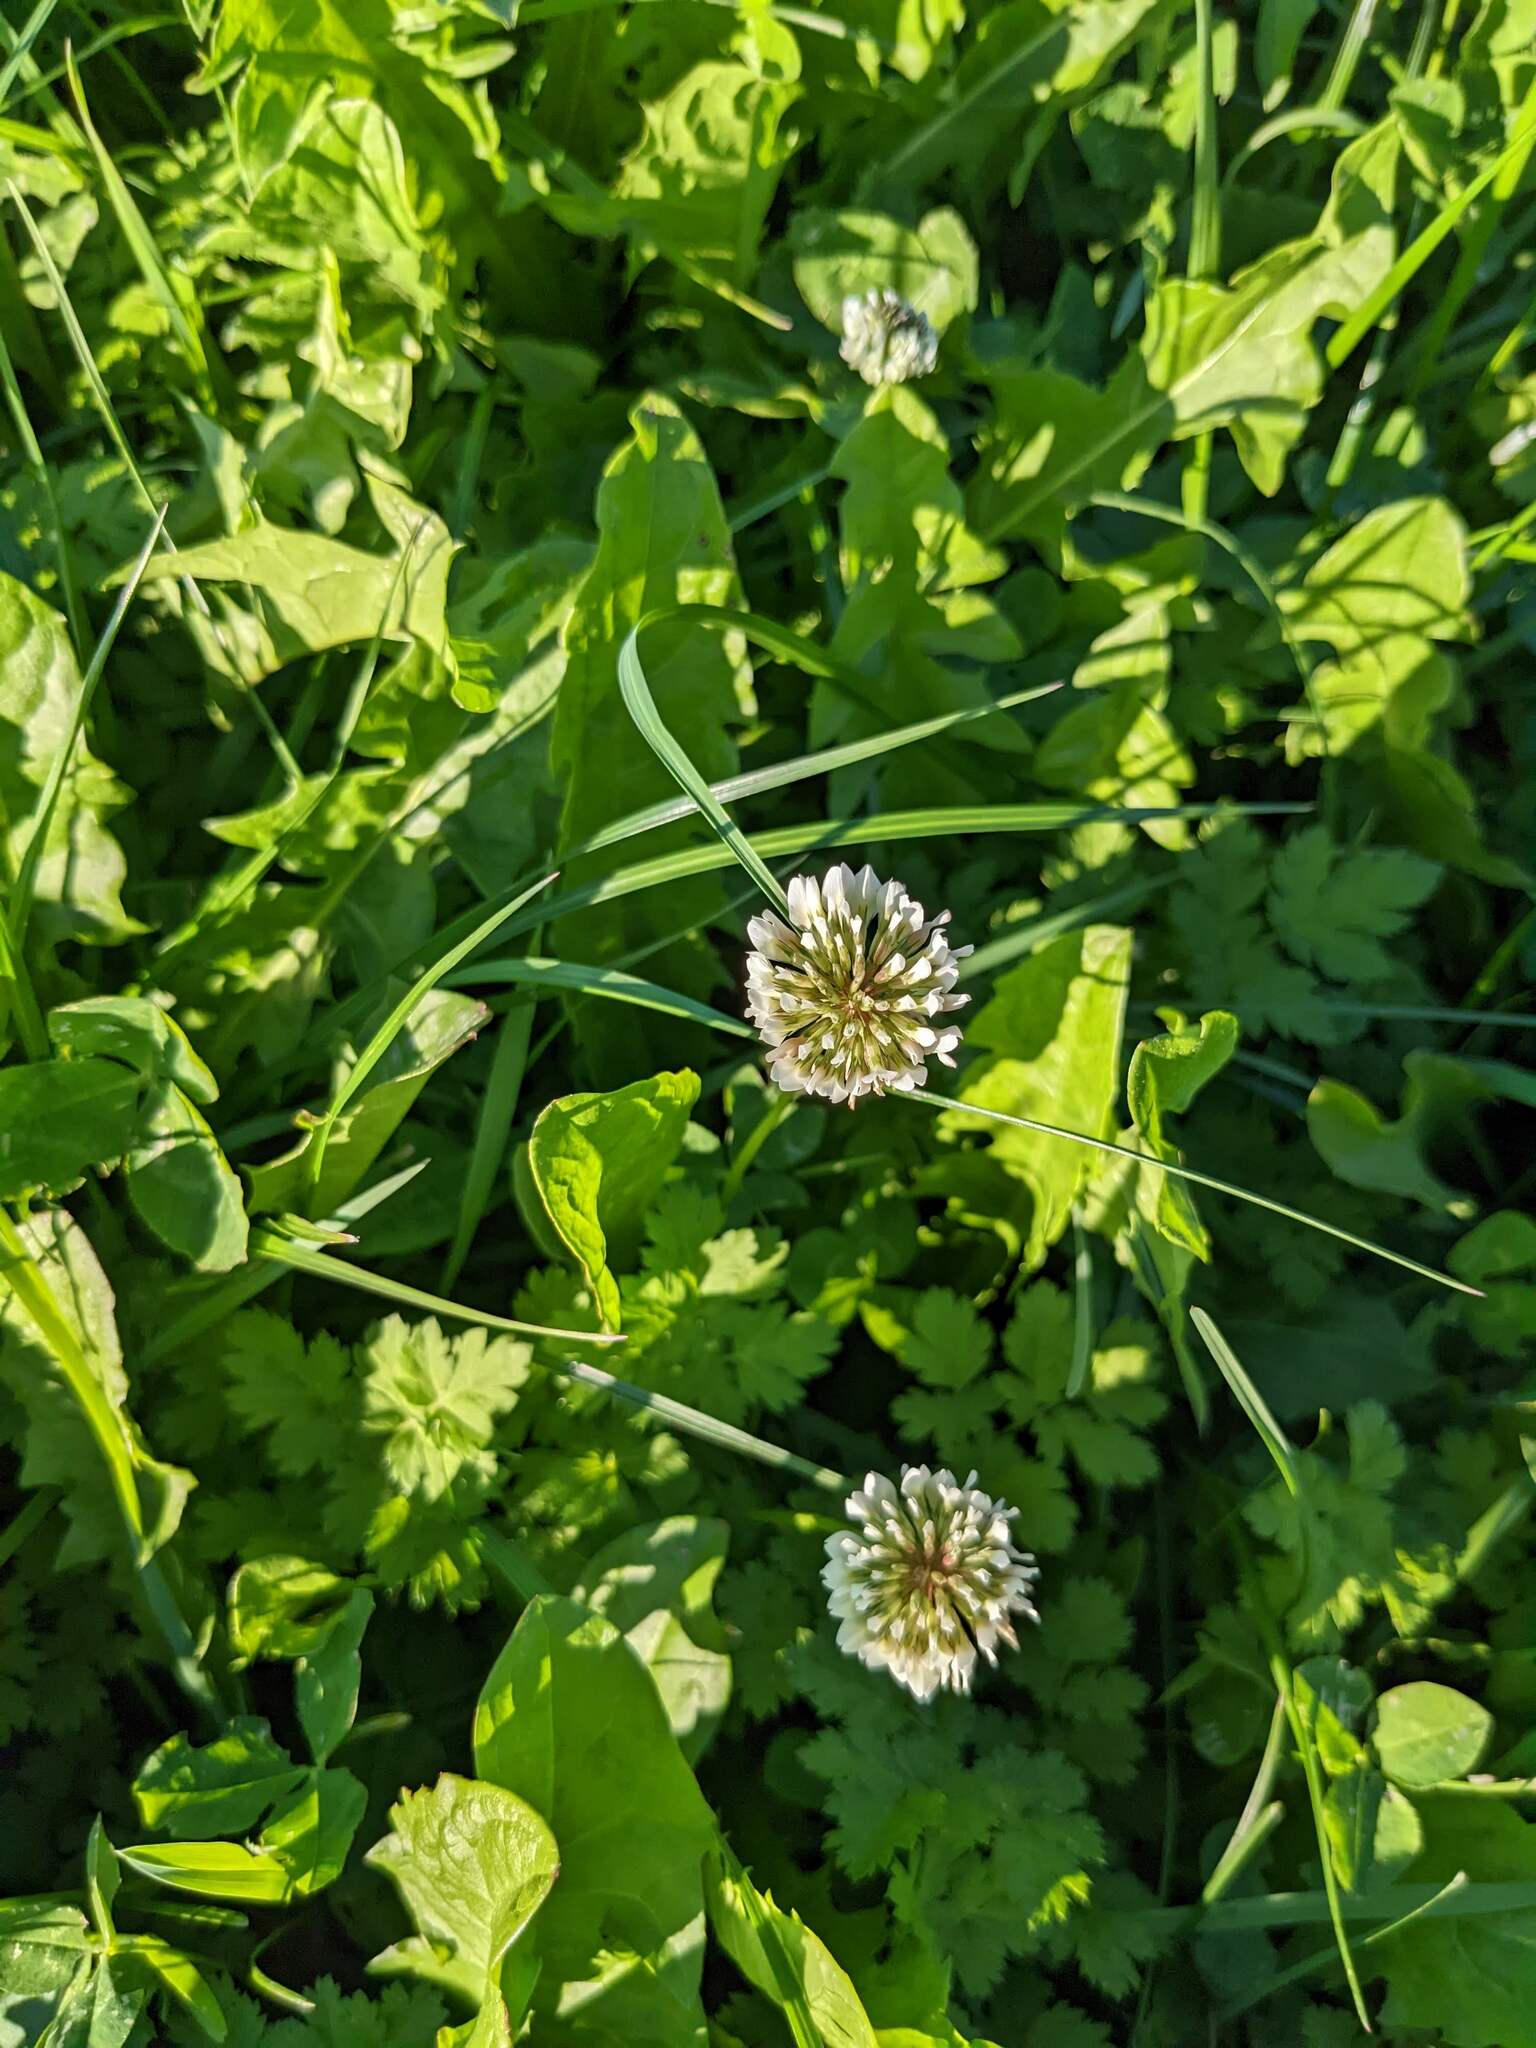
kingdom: Plantae
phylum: Tracheophyta
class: Magnoliopsida
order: Fabales
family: Fabaceae
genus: Trifolium
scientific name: Trifolium repens
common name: White clover
